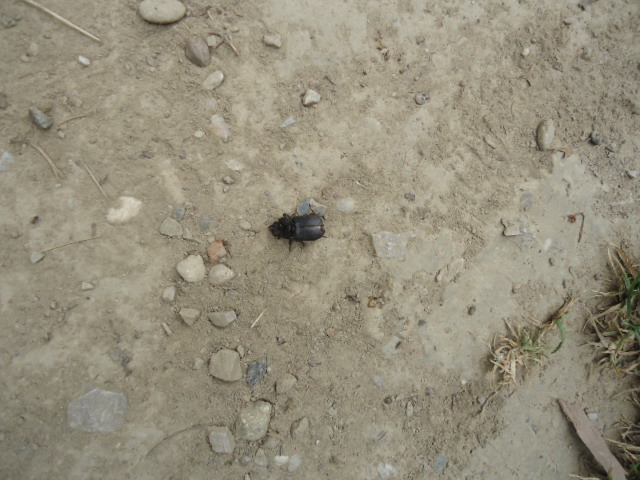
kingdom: Animalia
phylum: Arthropoda
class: Insecta
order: Coleoptera
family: Lucanidae
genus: Dorcus
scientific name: Dorcus parallelipipedus
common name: Lesser stag beetle
